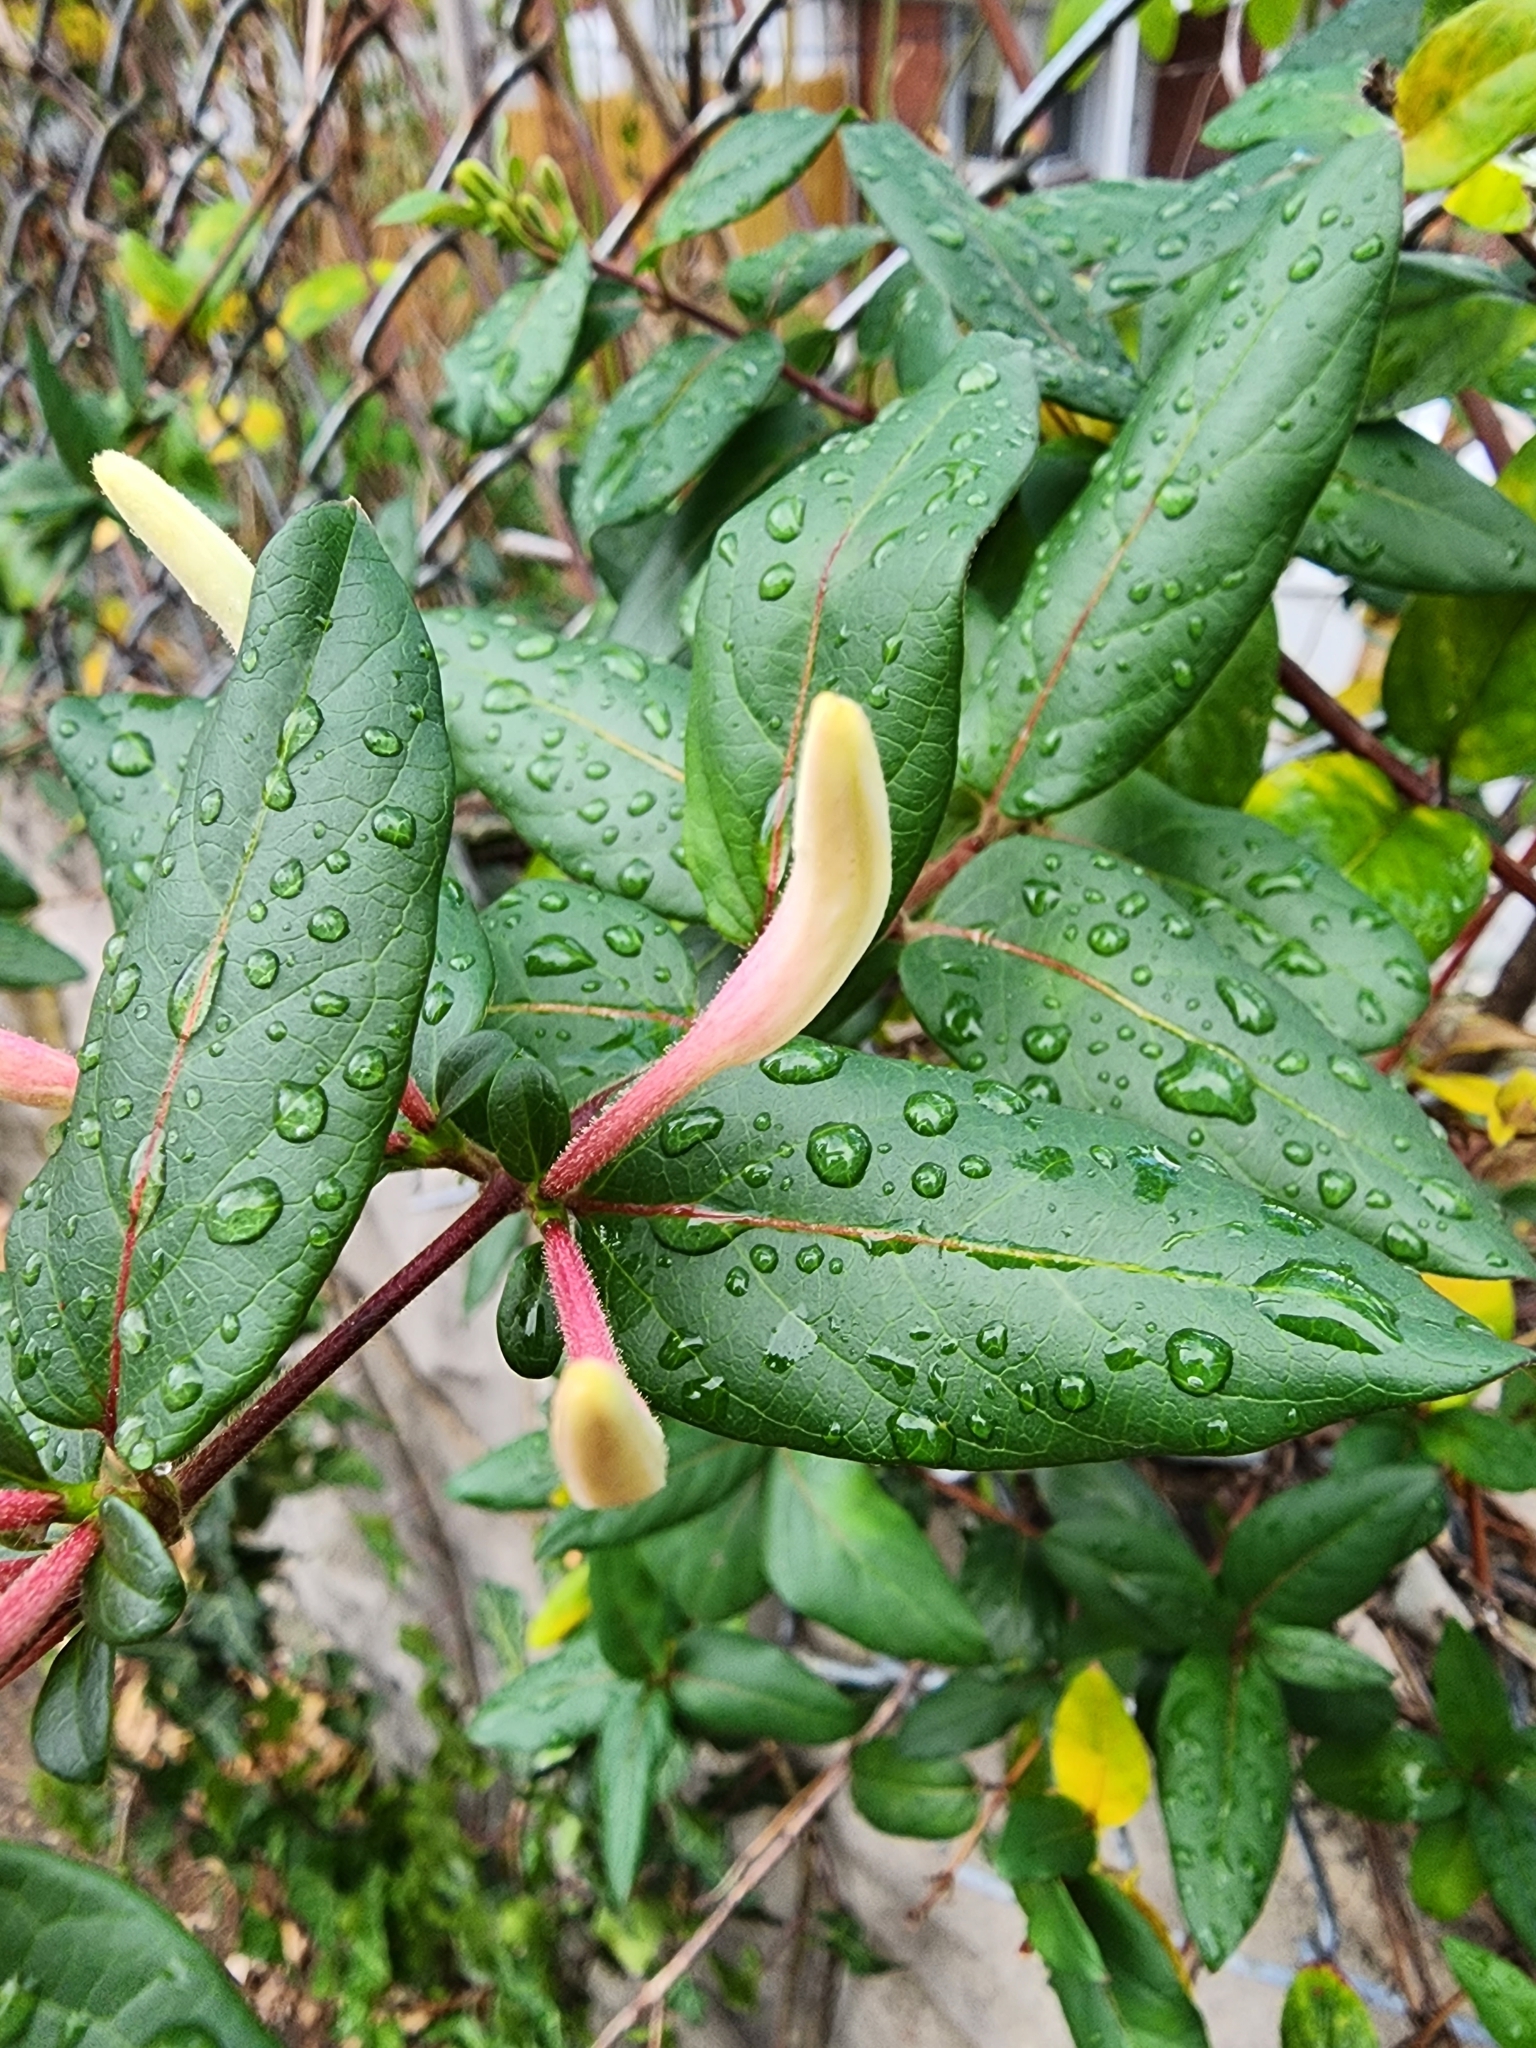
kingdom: Plantae
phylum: Tracheophyta
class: Magnoliopsida
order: Dipsacales
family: Caprifoliaceae
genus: Lonicera
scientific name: Lonicera japonica
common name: Japanese honeysuckle
